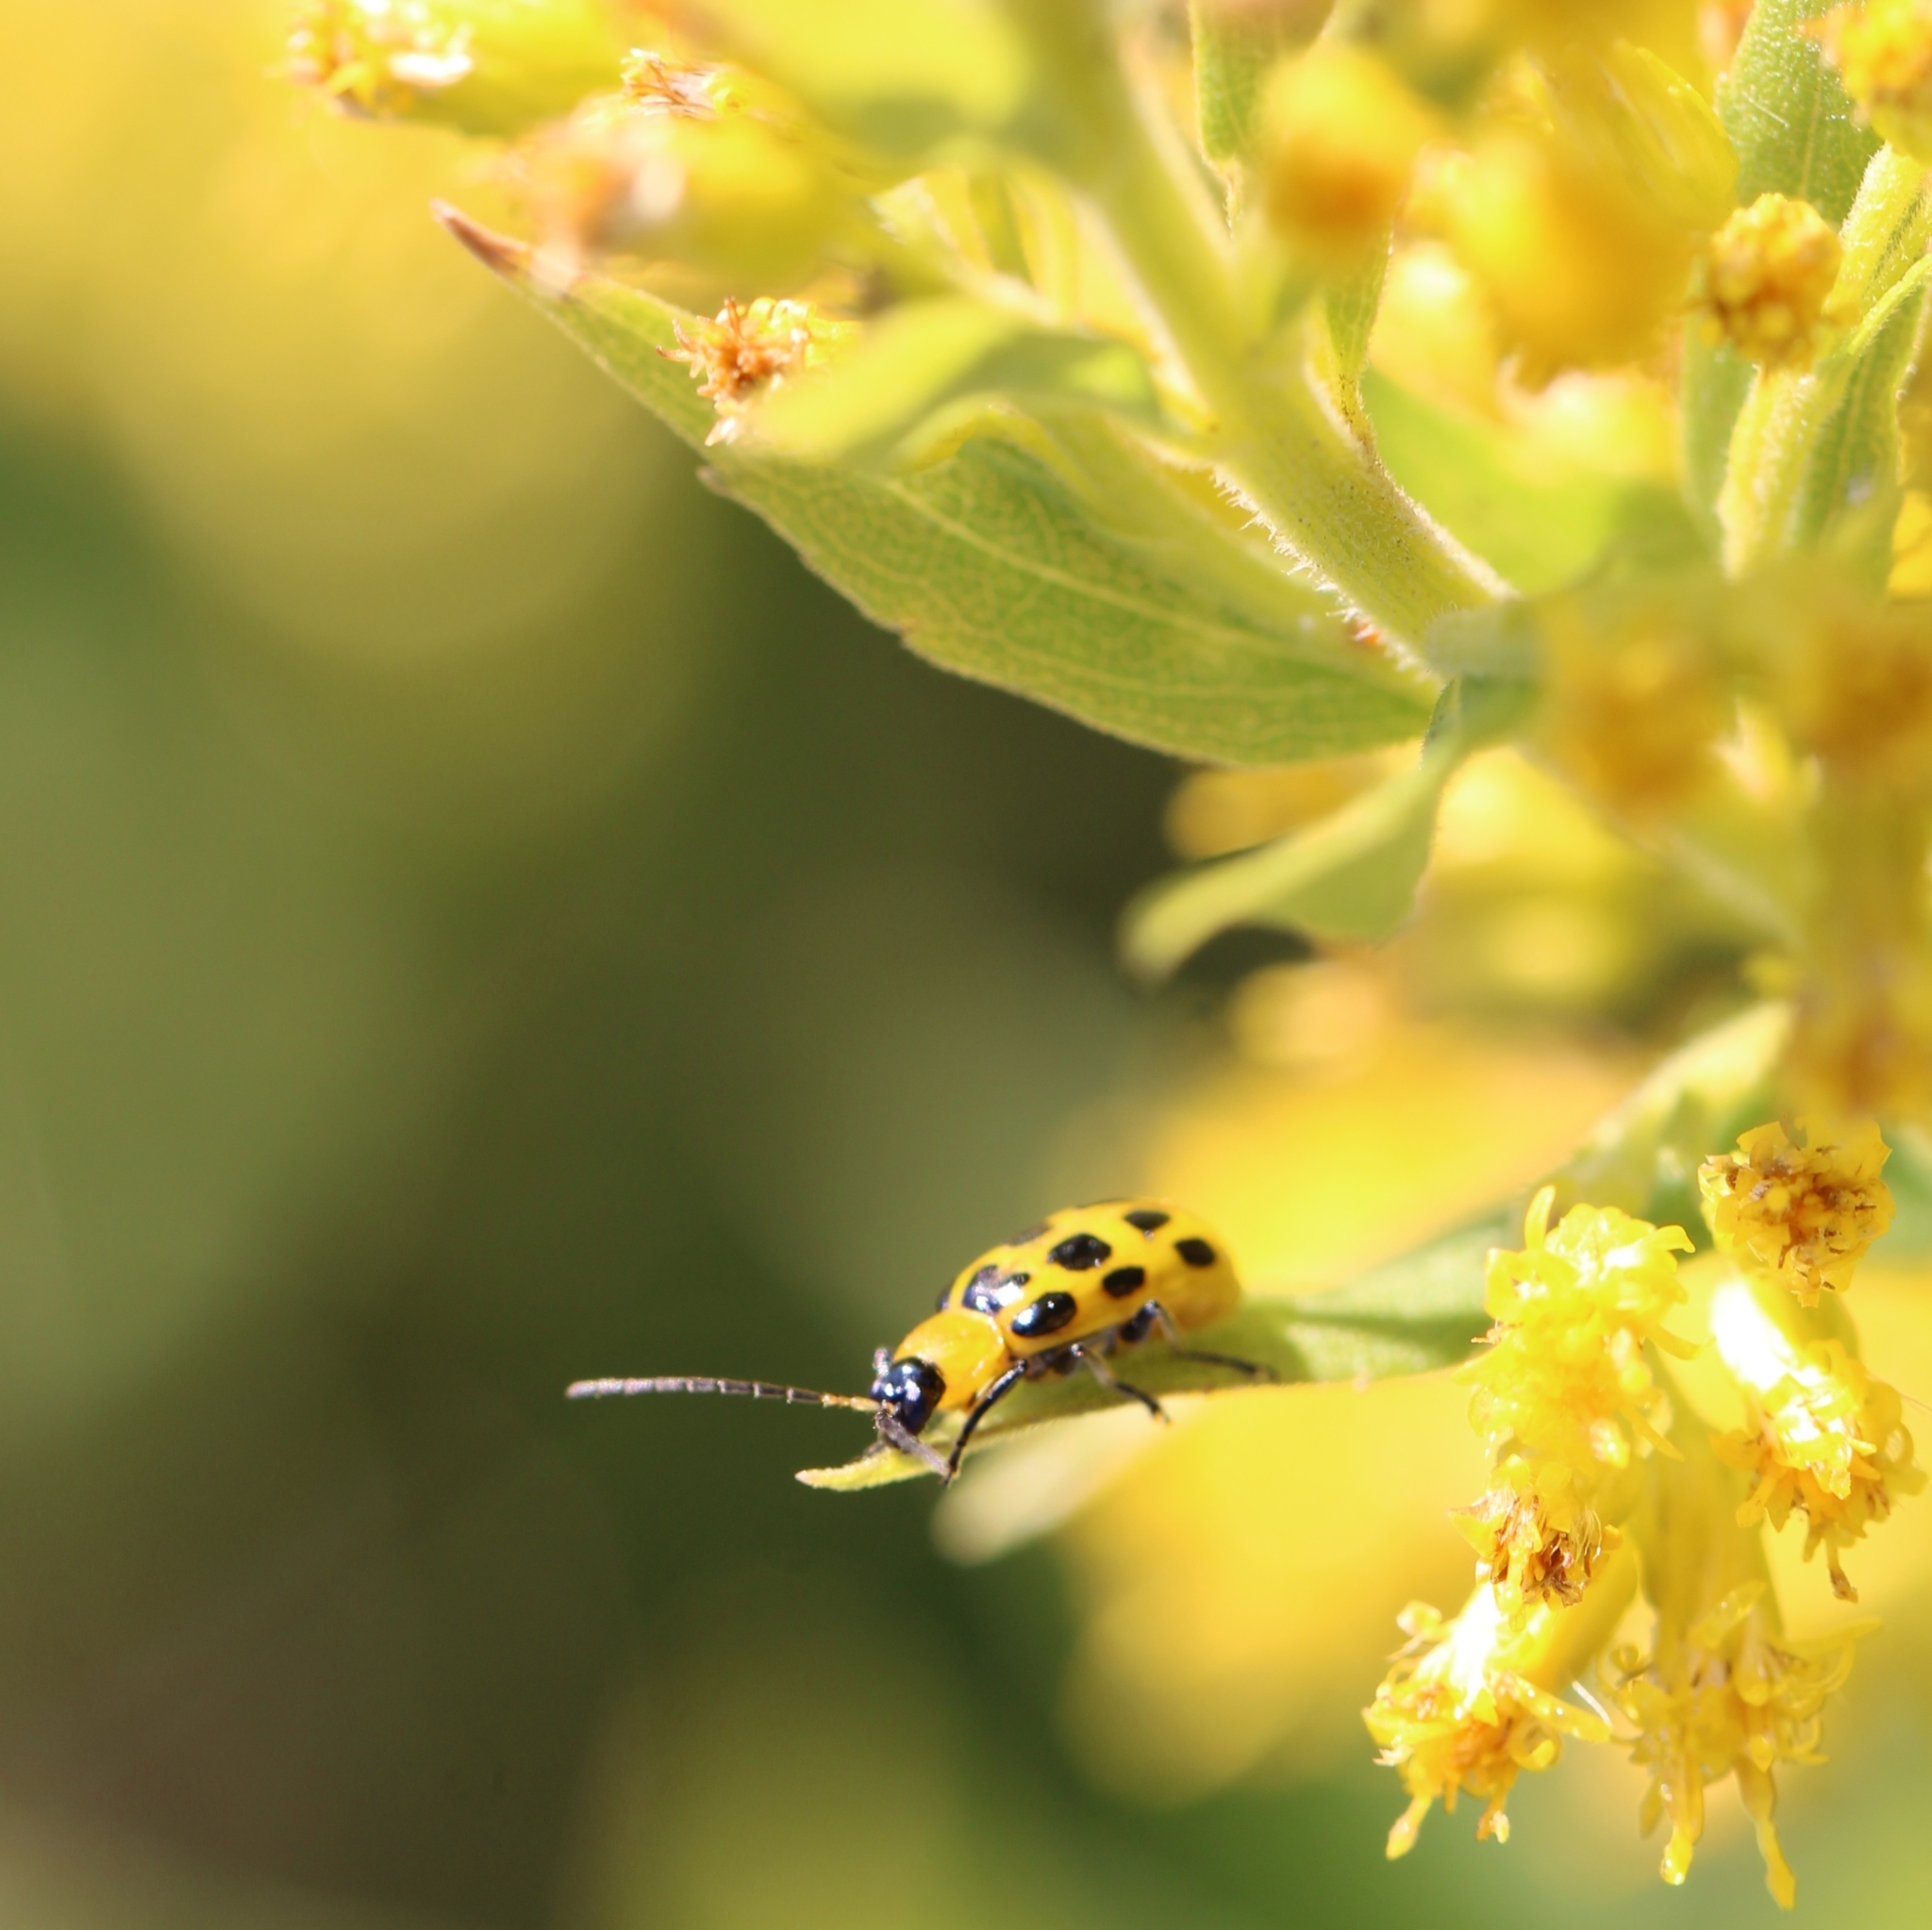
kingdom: Animalia
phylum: Arthropoda
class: Insecta
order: Coleoptera
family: Chrysomelidae
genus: Diabrotica
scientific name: Diabrotica undecimpunctata
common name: Spotted cucumber beetle
